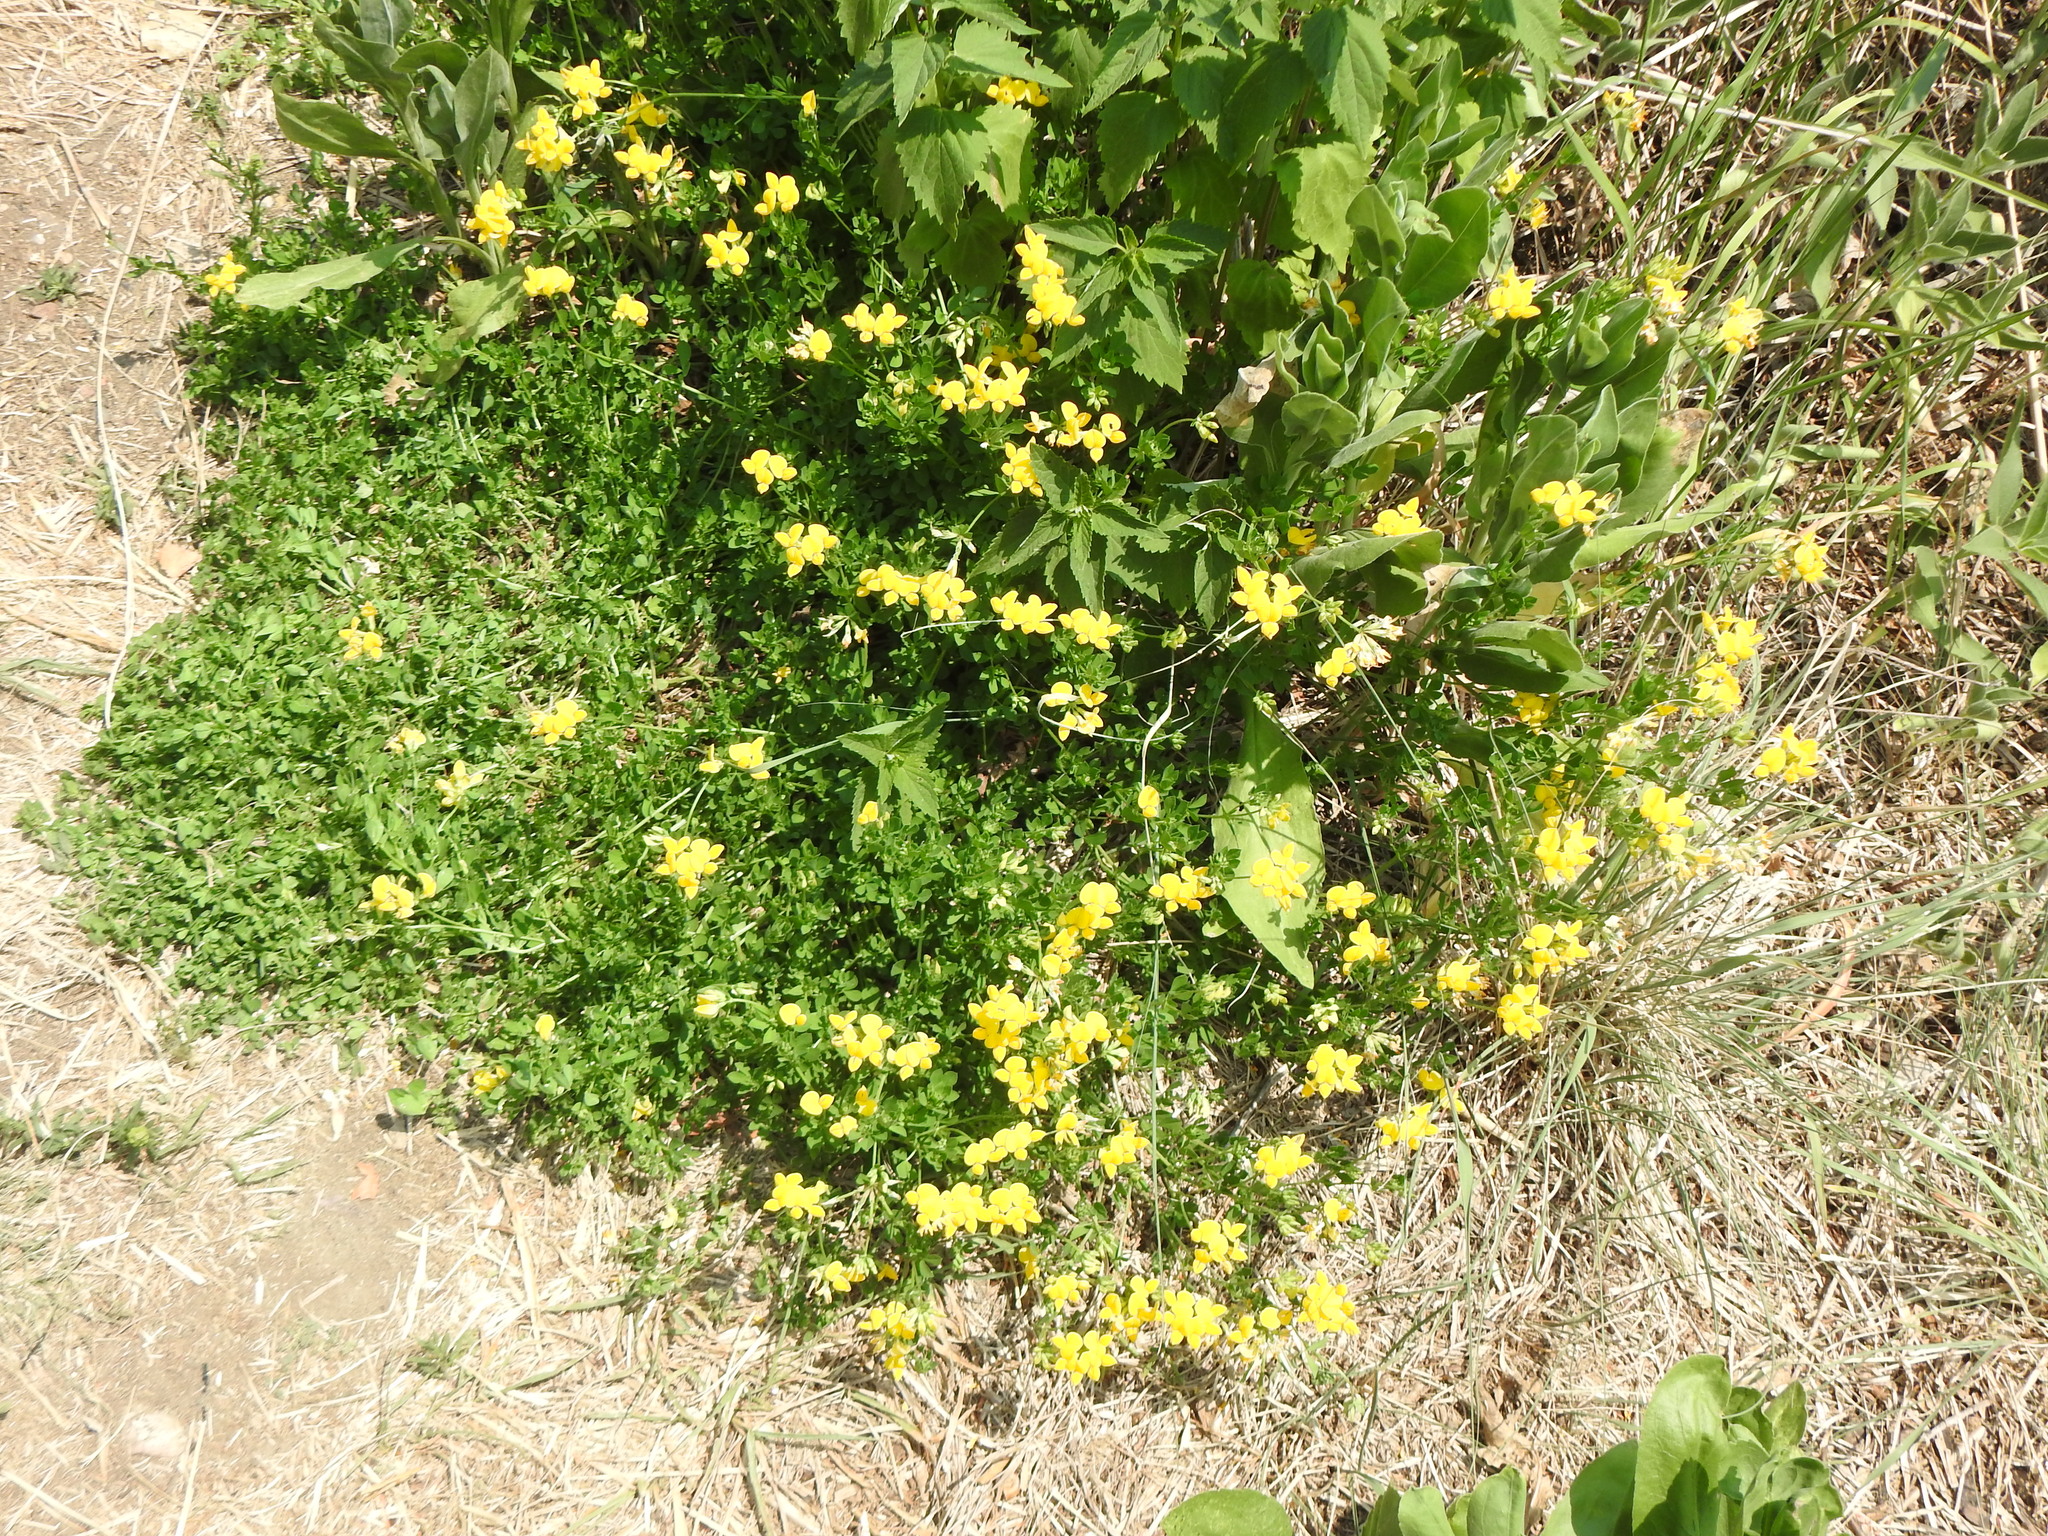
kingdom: Plantae
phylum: Tracheophyta
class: Magnoliopsida
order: Fabales
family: Fabaceae
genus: Lotus
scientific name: Lotus corniculatus
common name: Common bird's-foot-trefoil
